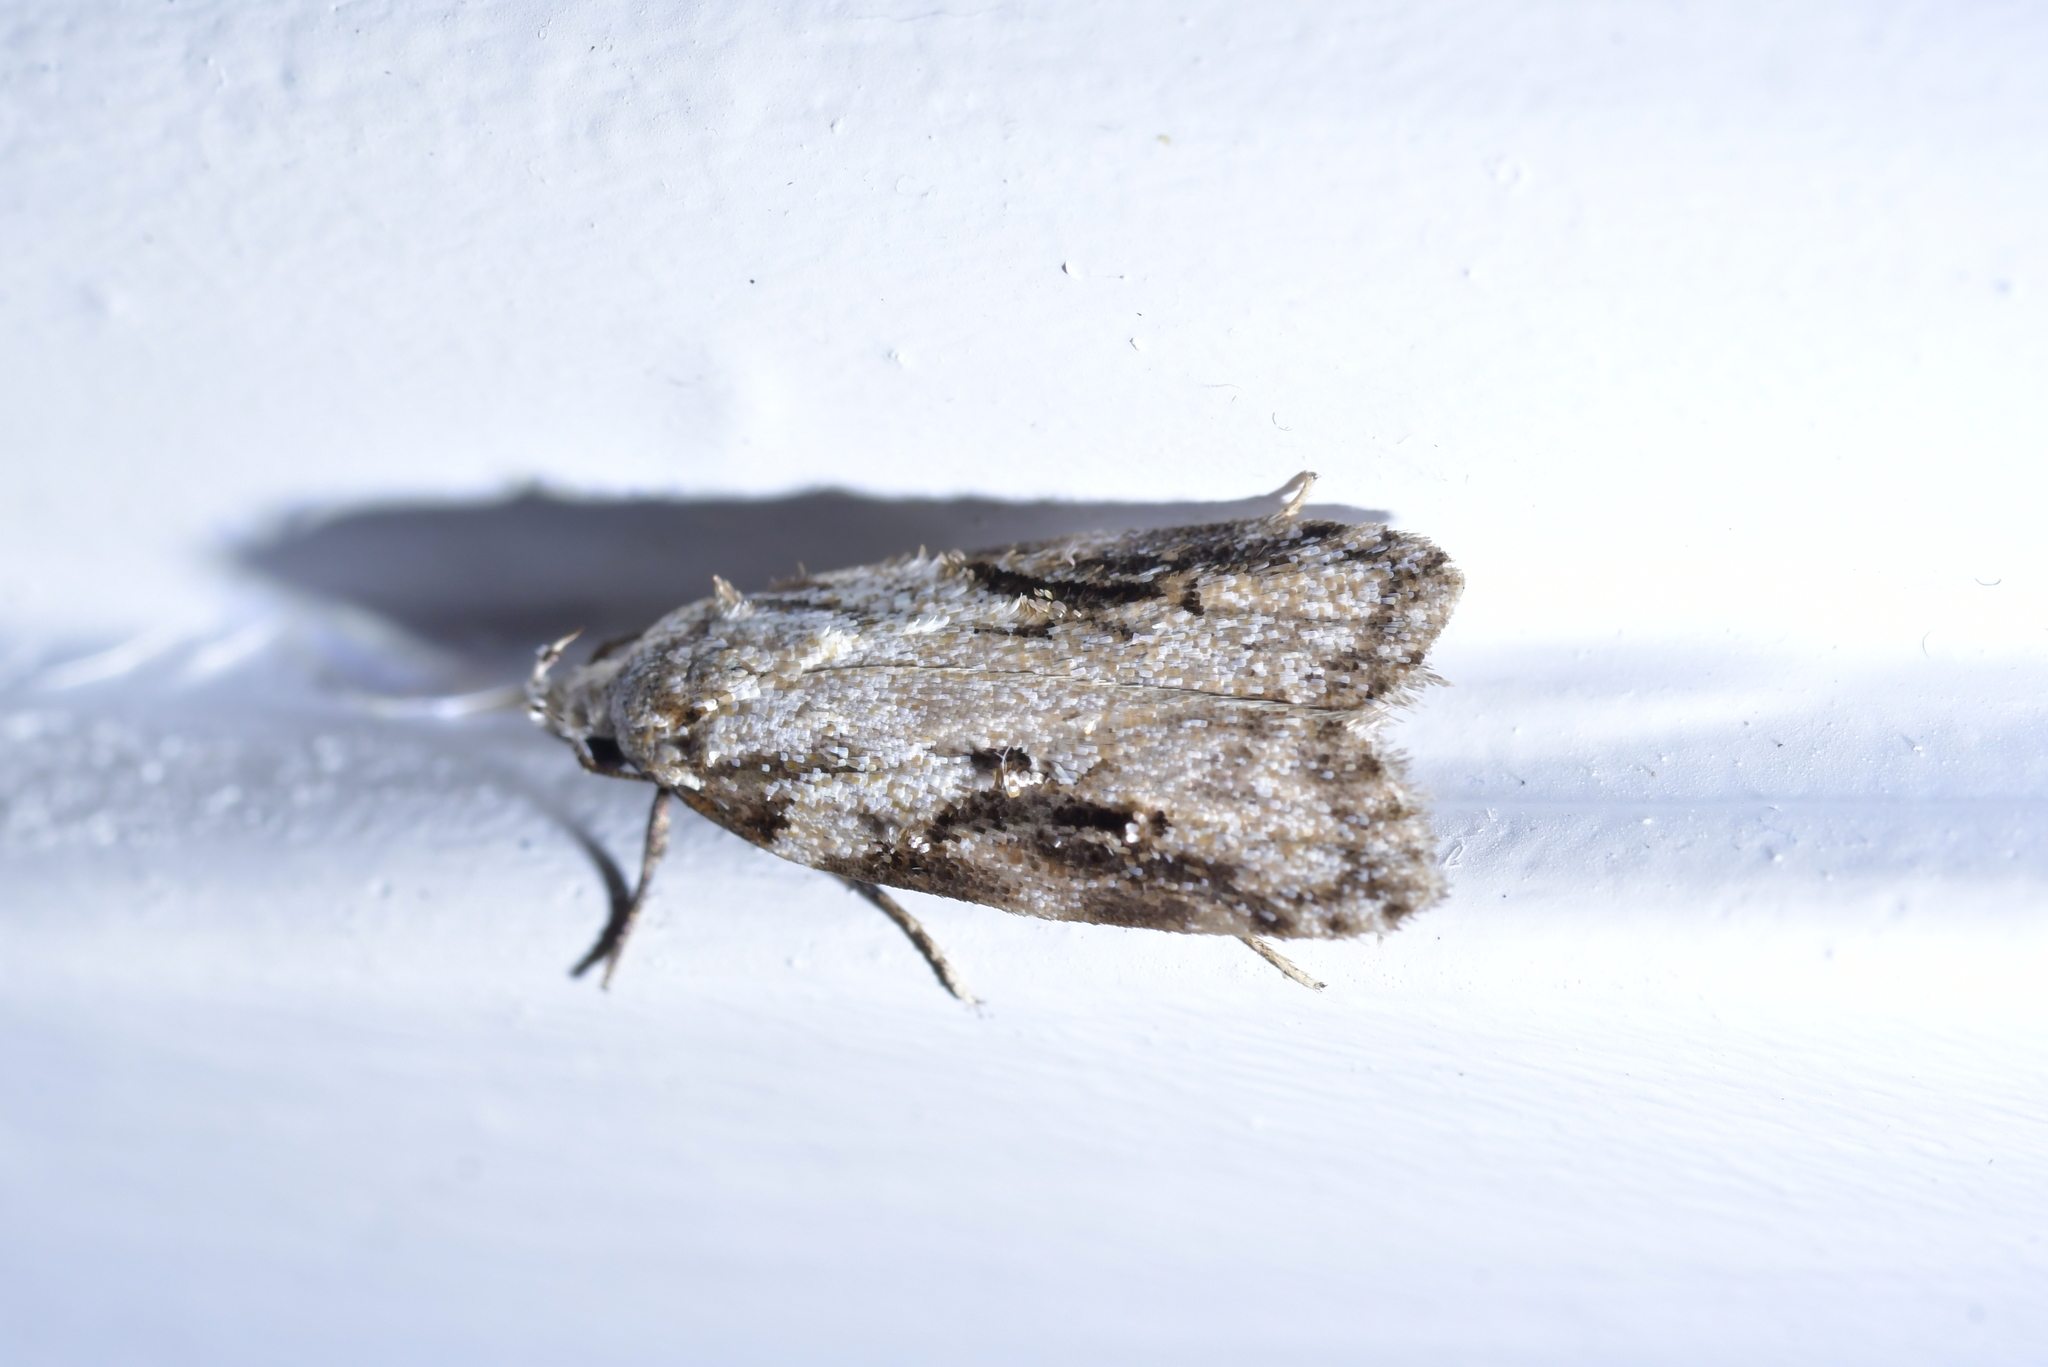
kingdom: Animalia
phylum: Arthropoda
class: Insecta
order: Lepidoptera
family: Oecophoridae
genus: Izatha
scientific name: Izatha mesoschista
